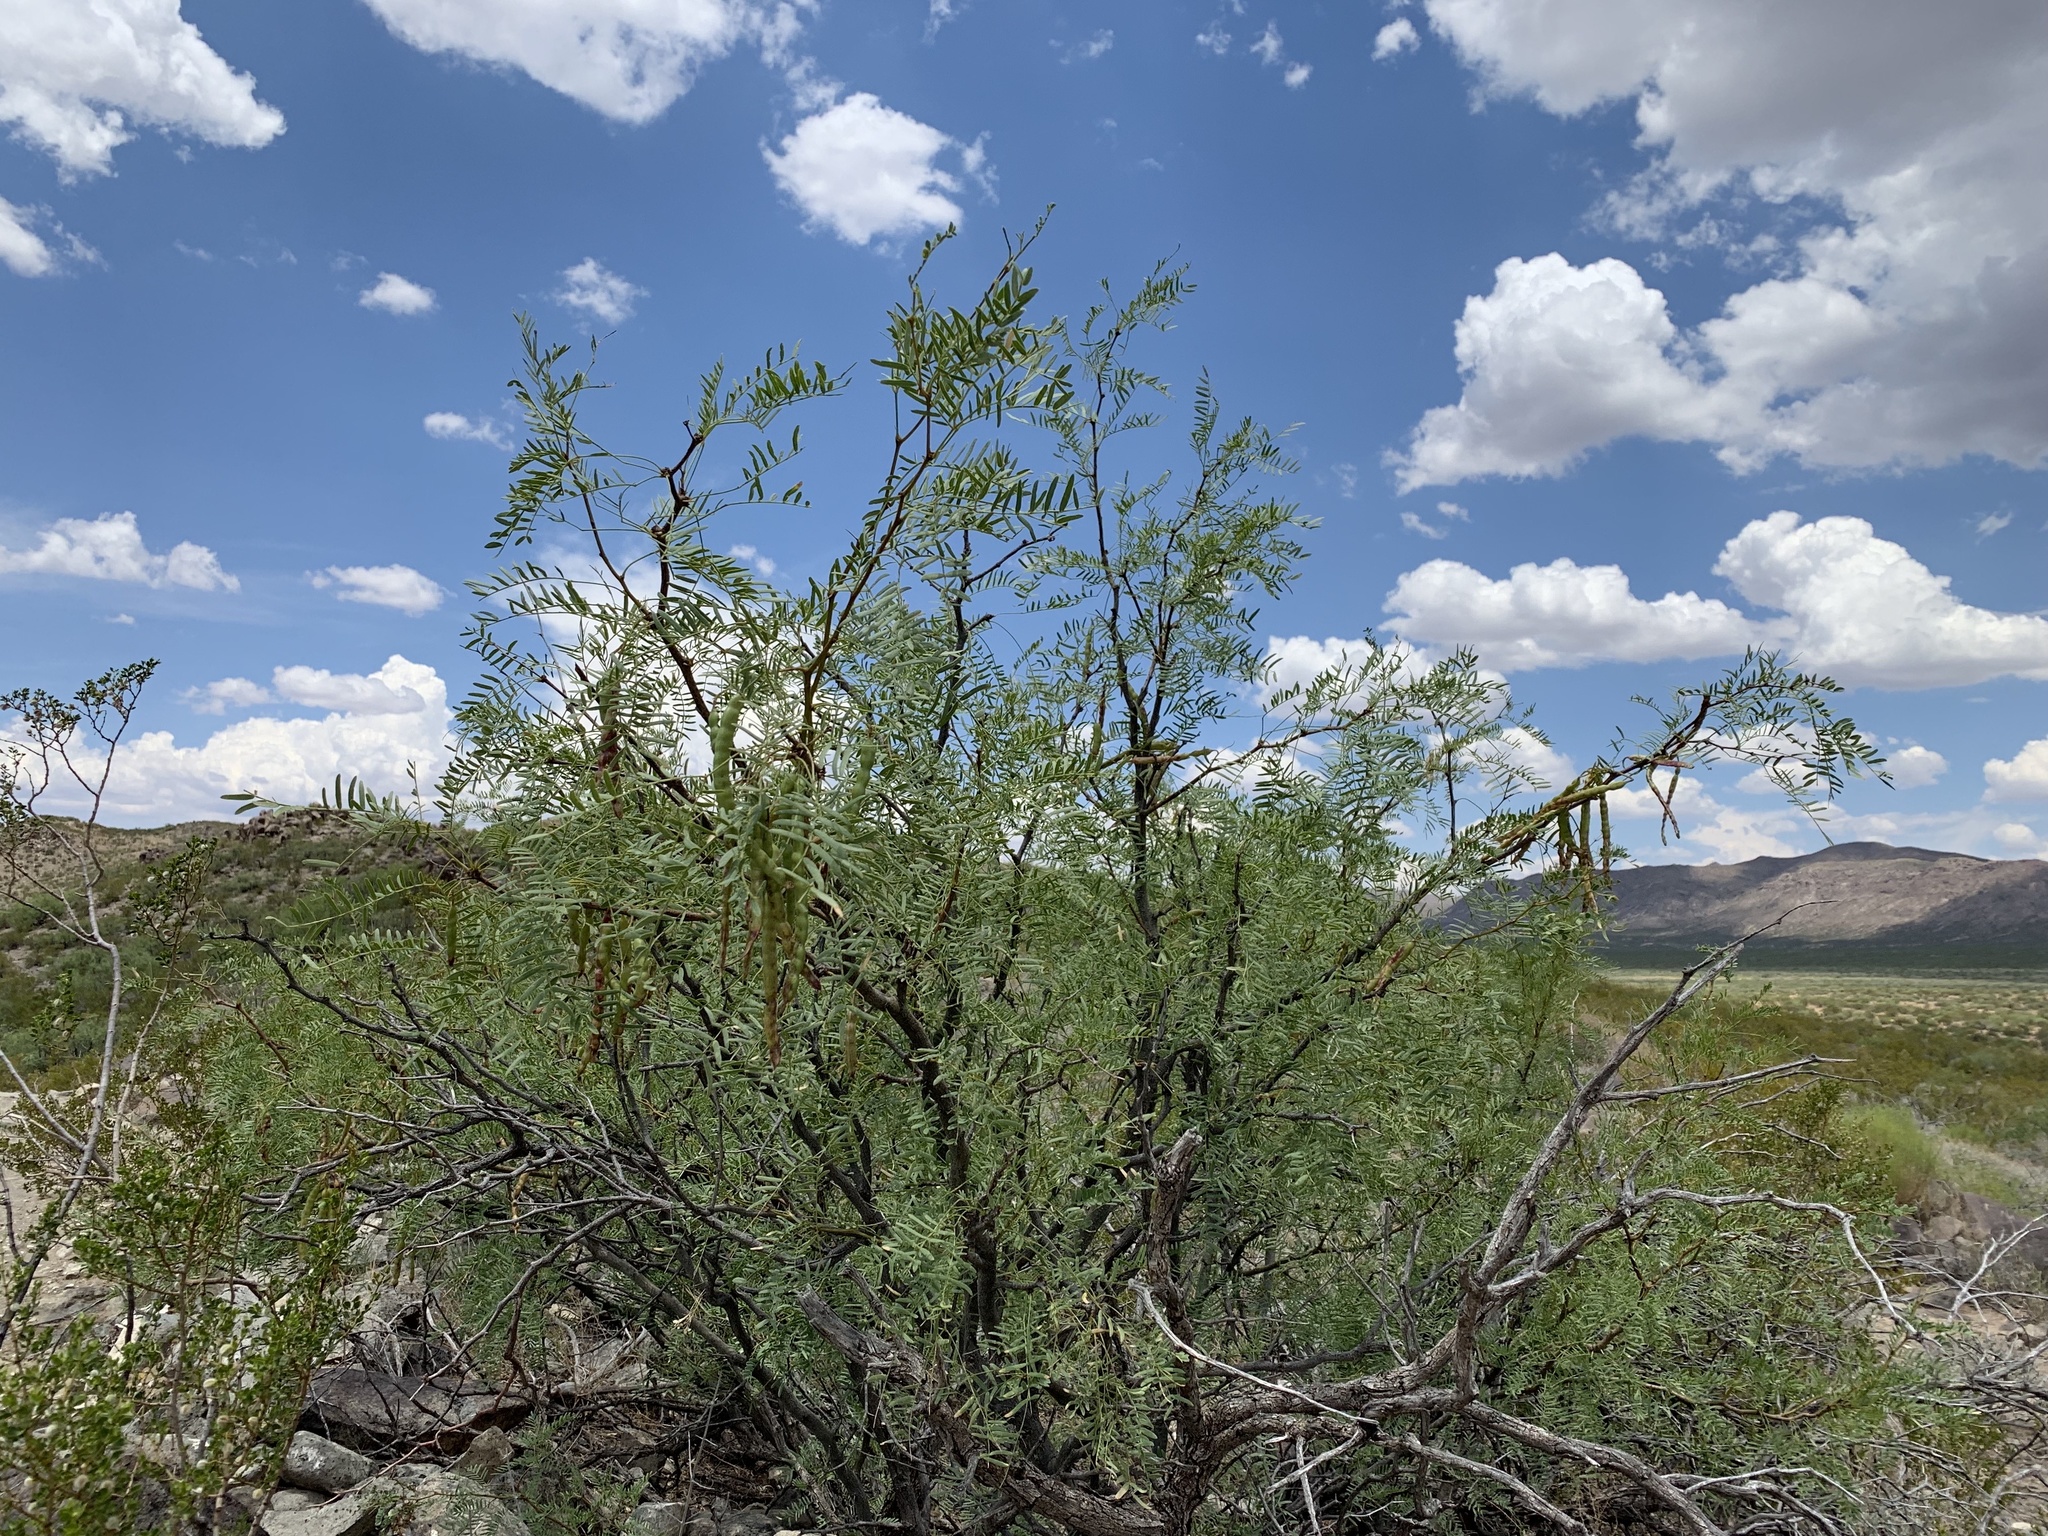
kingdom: Plantae
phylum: Tracheophyta
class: Magnoliopsida
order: Fabales
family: Fabaceae
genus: Prosopis
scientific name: Prosopis glandulosa
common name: Honey mesquite
